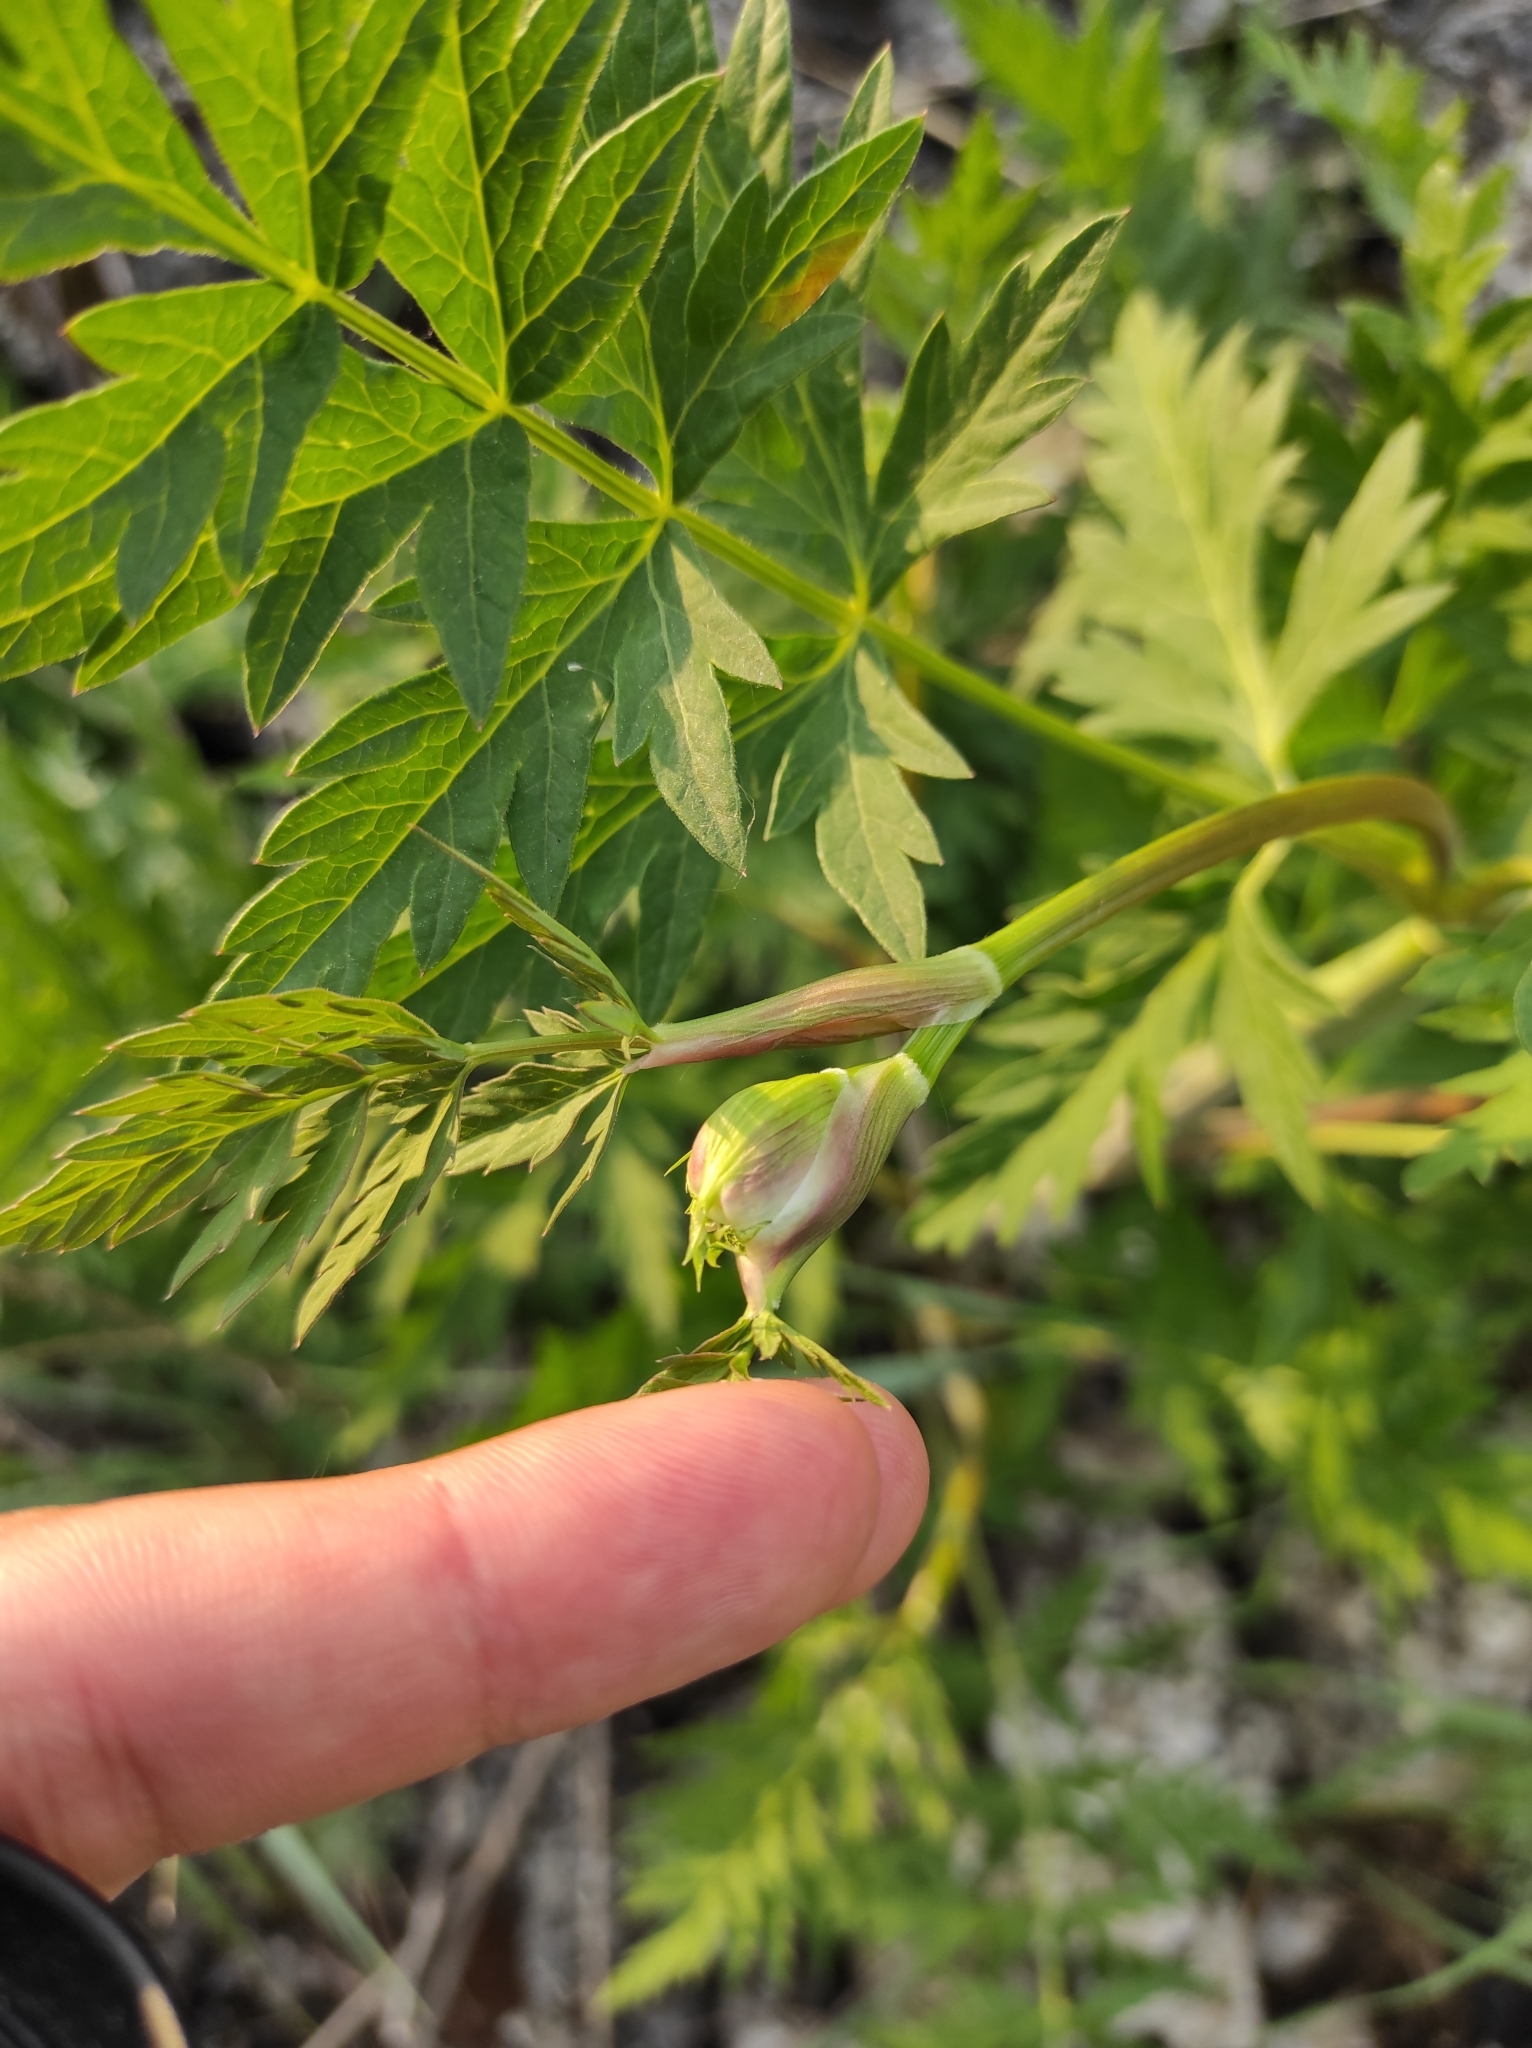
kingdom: Plantae
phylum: Tracheophyta
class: Magnoliopsida
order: Apiales
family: Apiaceae
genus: Seseli
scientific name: Seseli libanotis
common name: Mooncarrot
